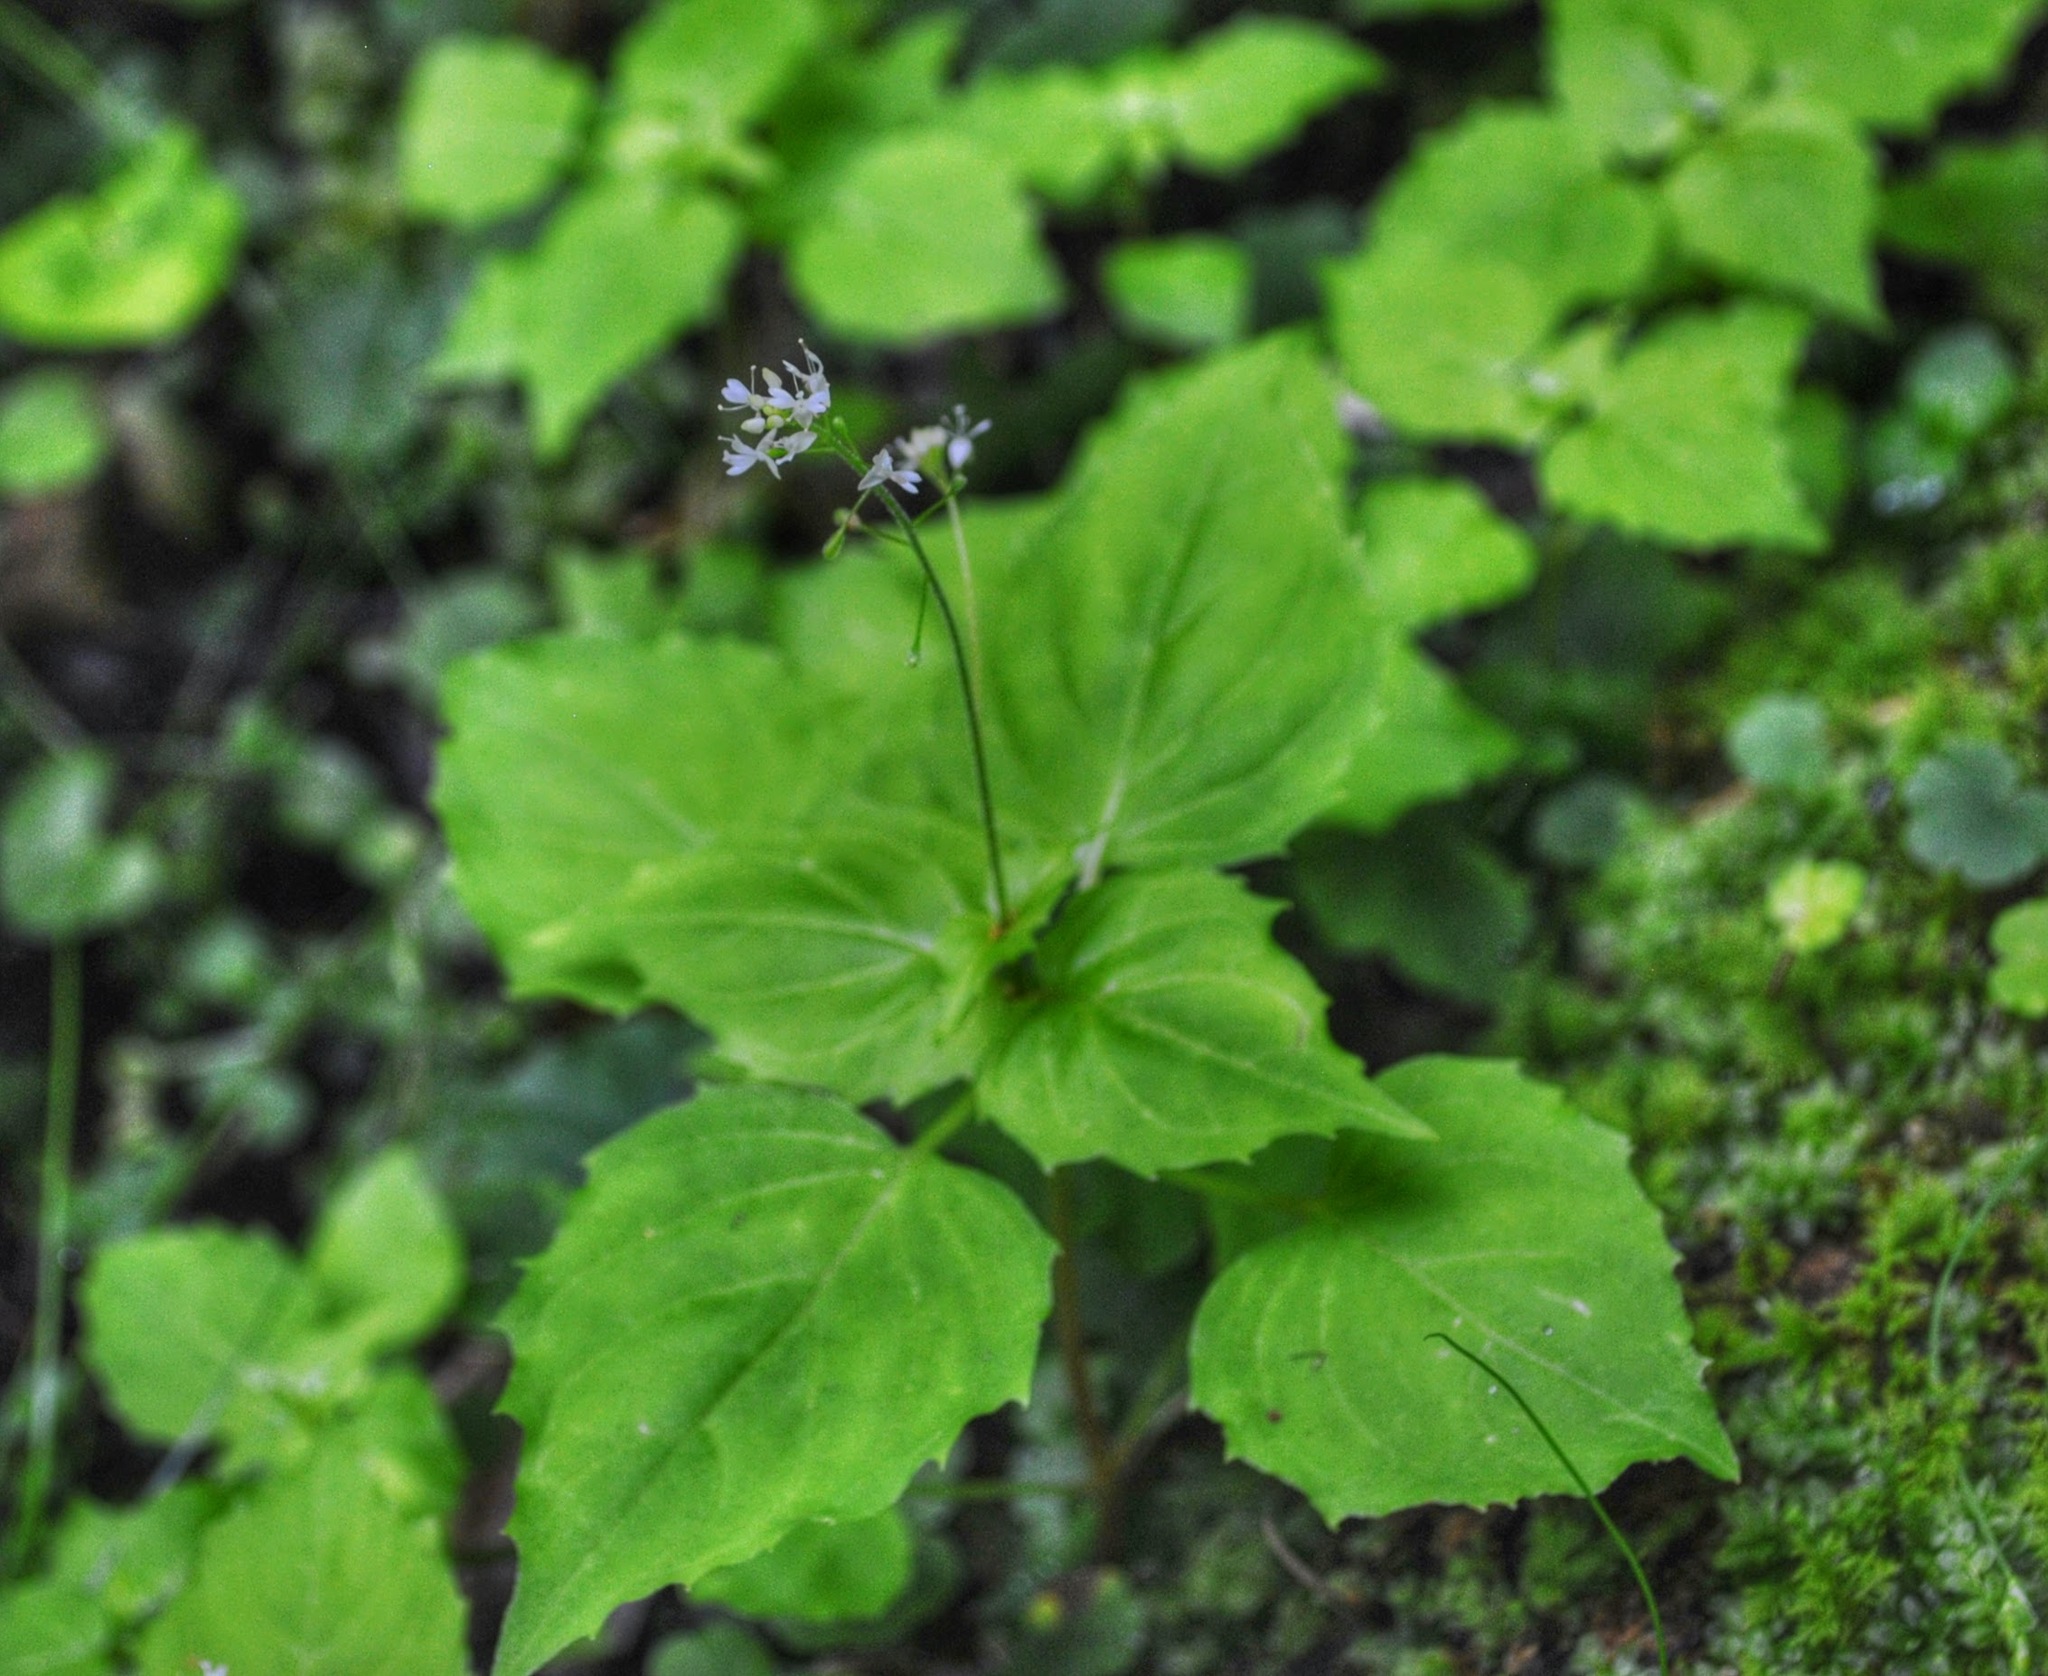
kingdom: Plantae
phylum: Tracheophyta
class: Magnoliopsida
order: Myrtales
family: Onagraceae
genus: Circaea
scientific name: Circaea alpina
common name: Alpine enchanter's-nightshade
